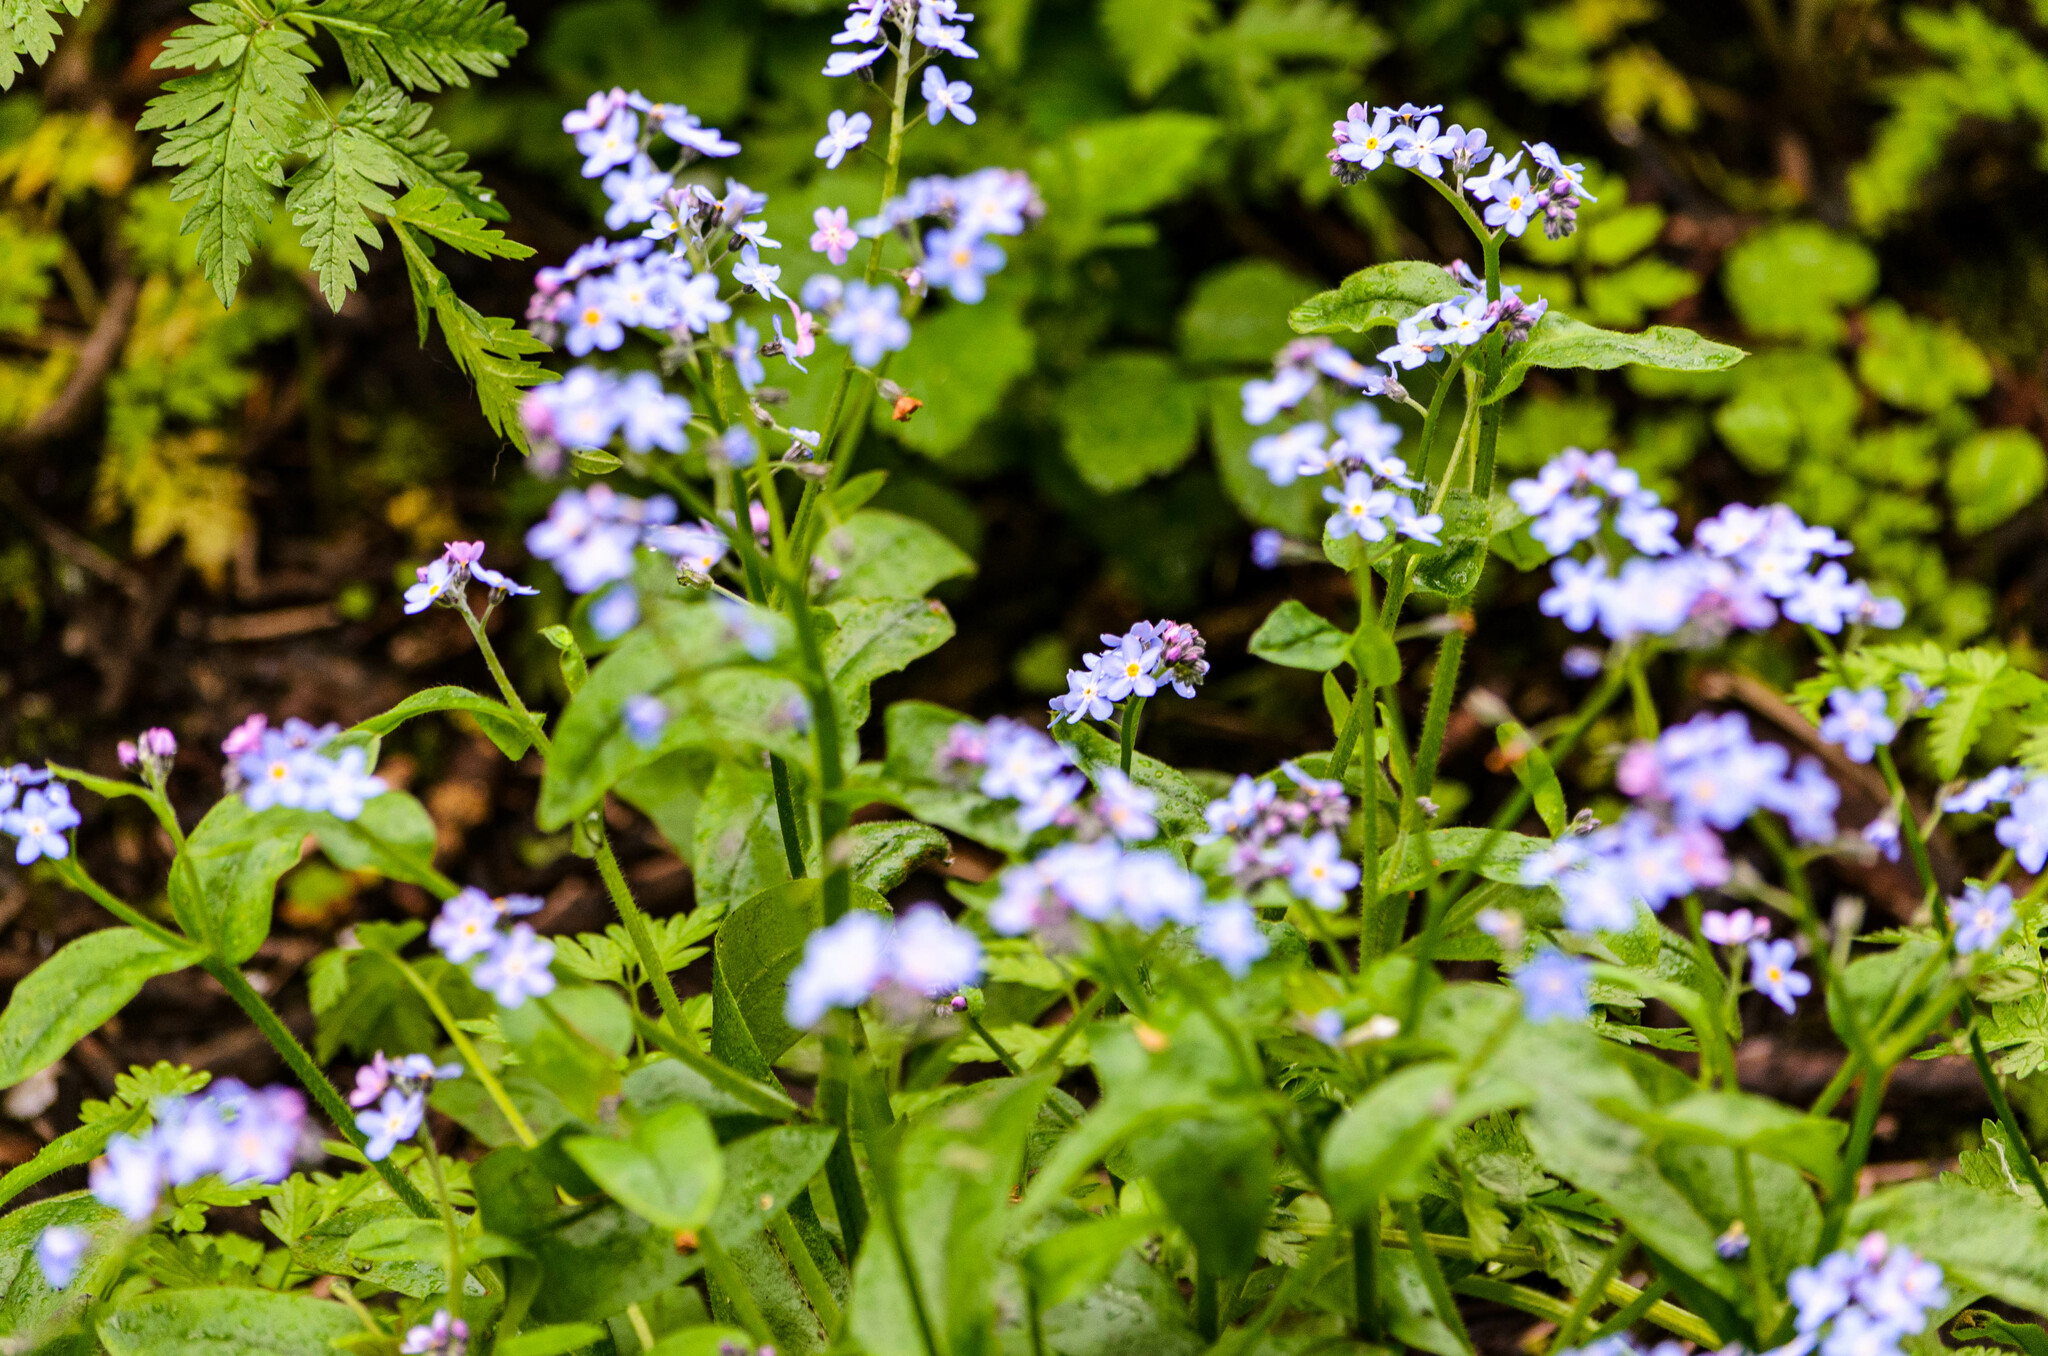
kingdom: Plantae
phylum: Tracheophyta
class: Magnoliopsida
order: Boraginales
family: Boraginaceae
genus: Myosotis
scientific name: Myosotis sylvatica
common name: Wood forget-me-not
